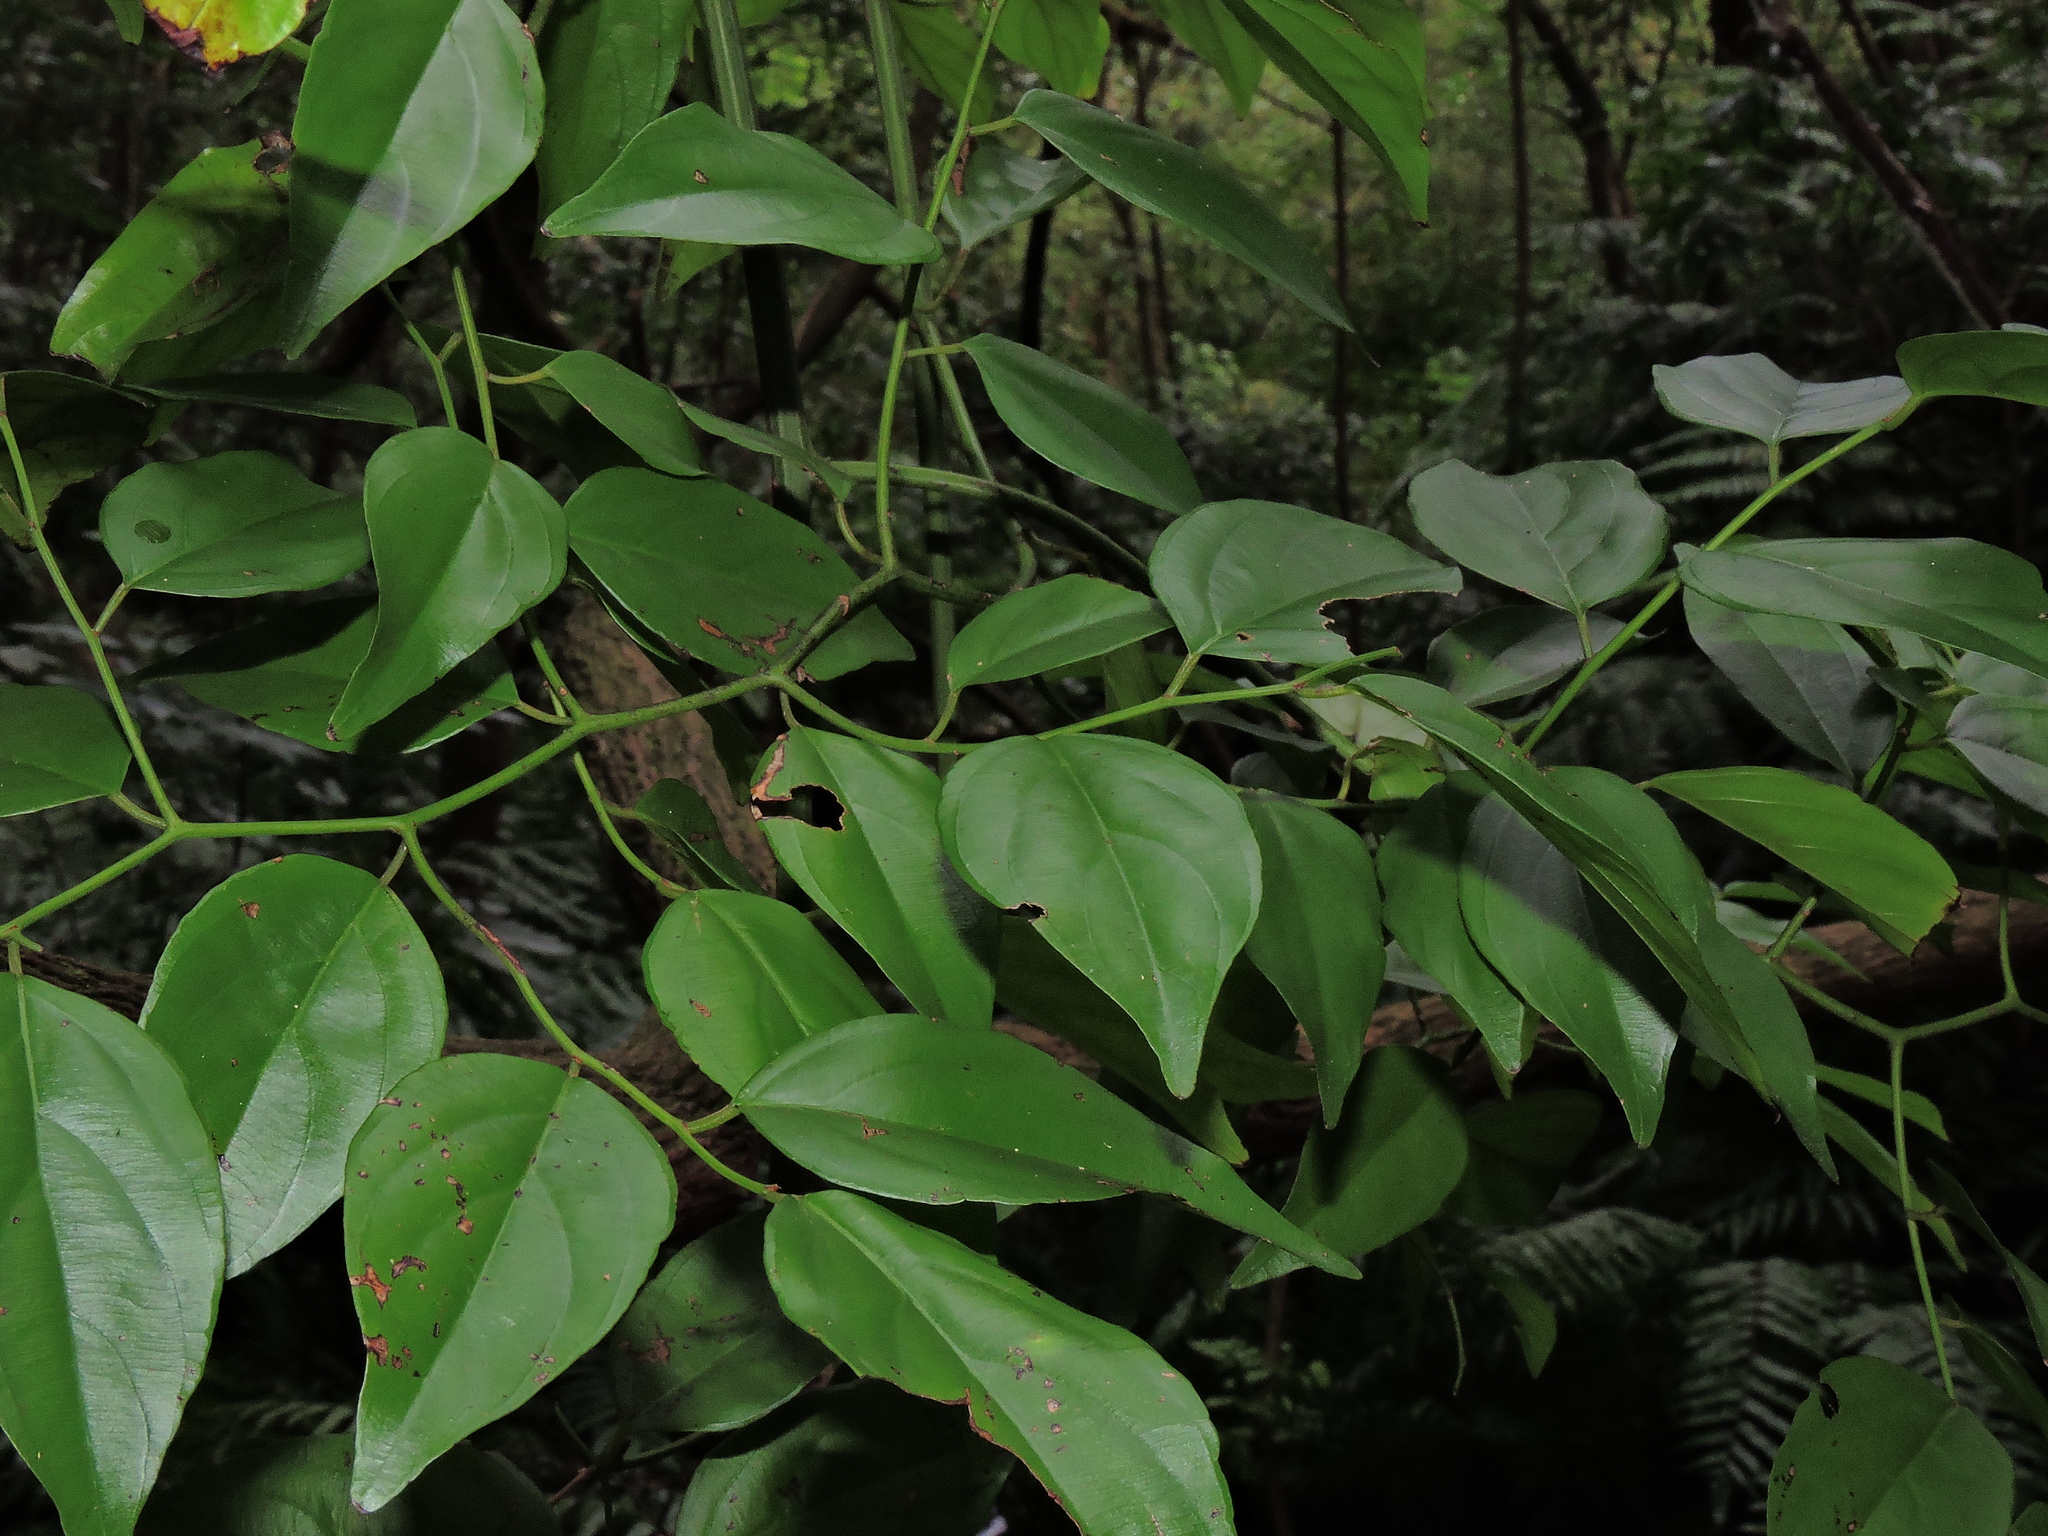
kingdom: Plantae
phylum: Tracheophyta
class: Magnoliopsida
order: Rosales
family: Rhamnaceae
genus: Ventilago
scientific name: Ventilago leiocarpa
